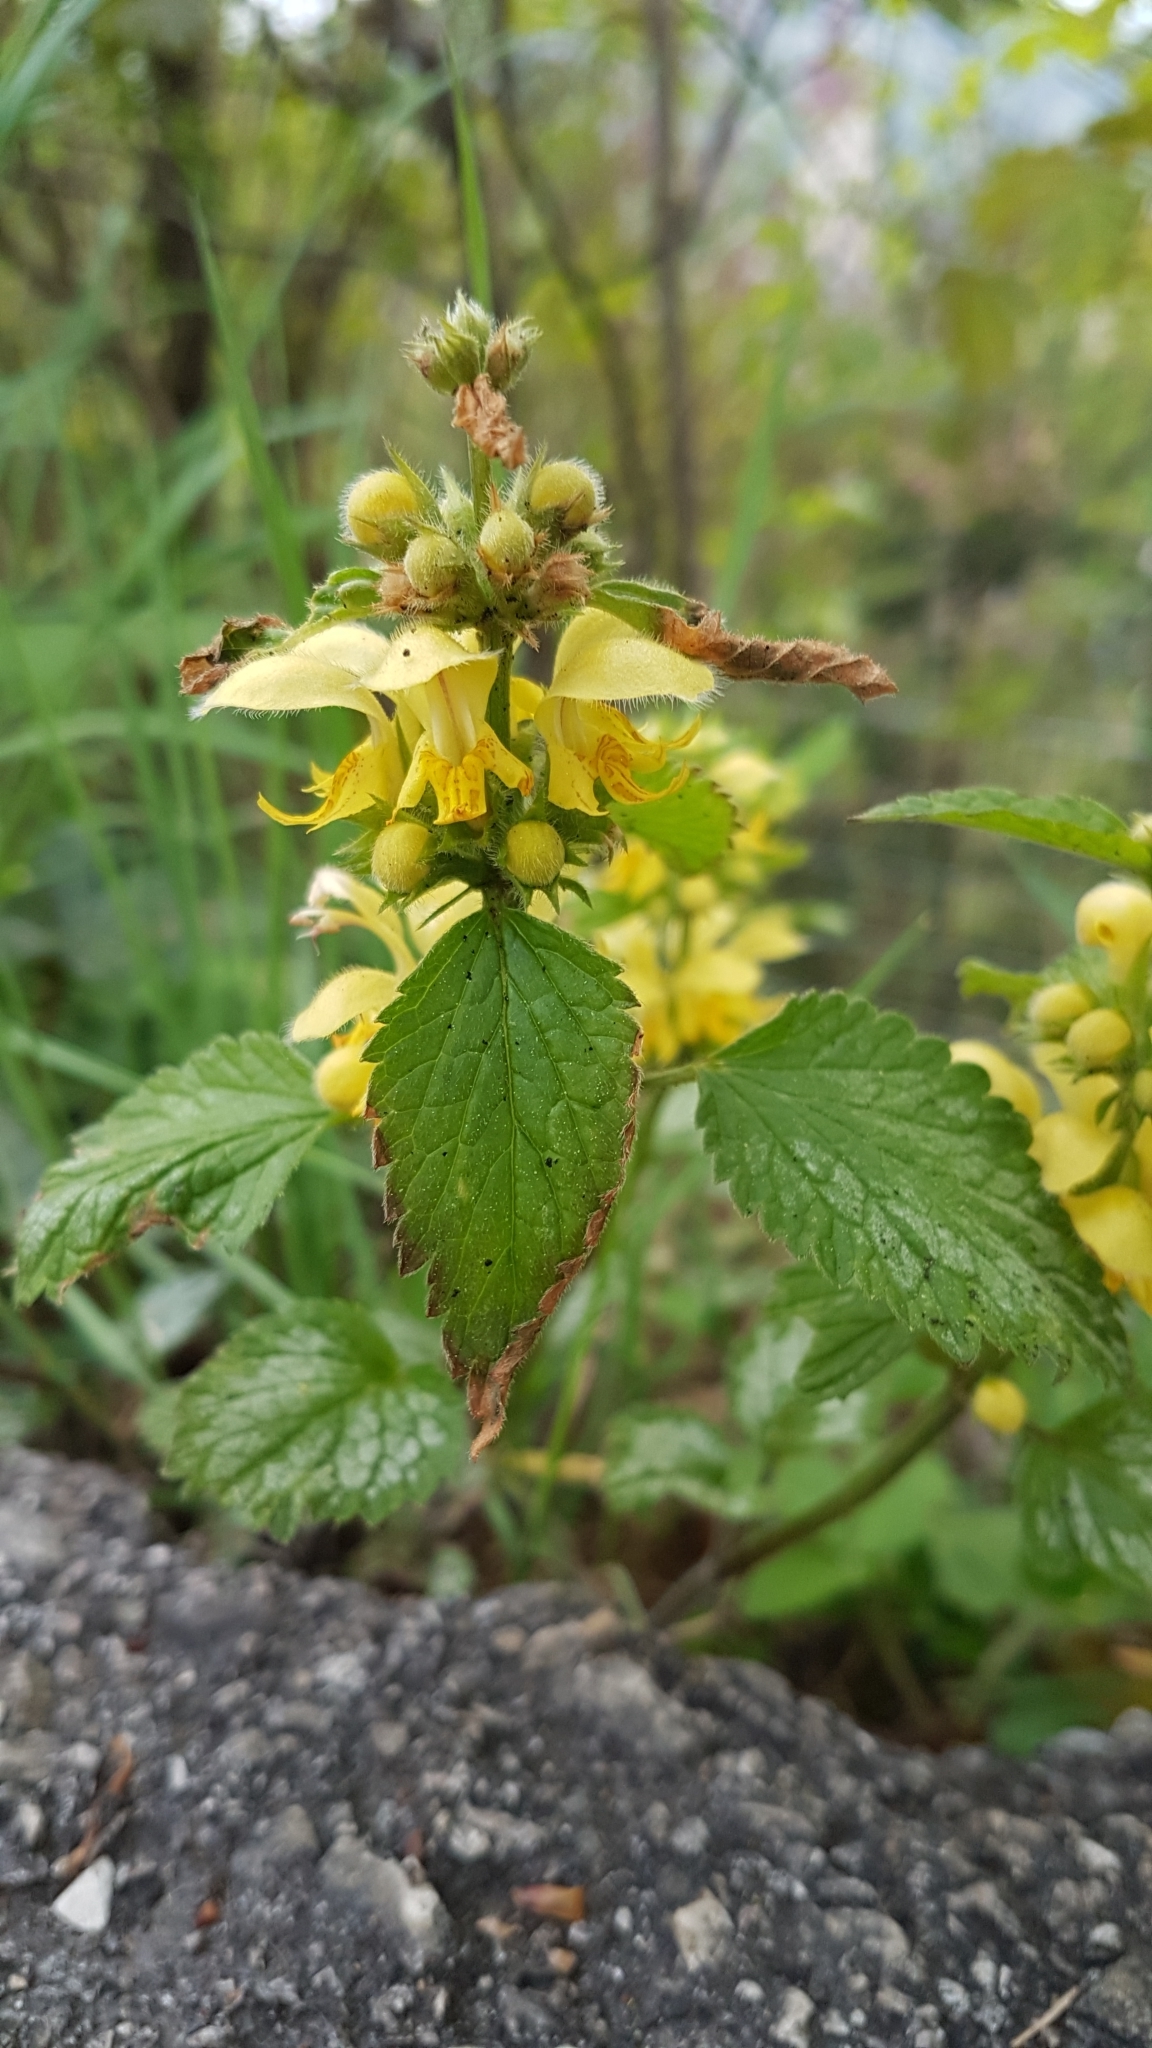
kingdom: Plantae
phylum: Tracheophyta
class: Magnoliopsida
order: Lamiales
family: Lamiaceae
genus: Lamium
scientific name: Lamium galeobdolon
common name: Yellow archangel
